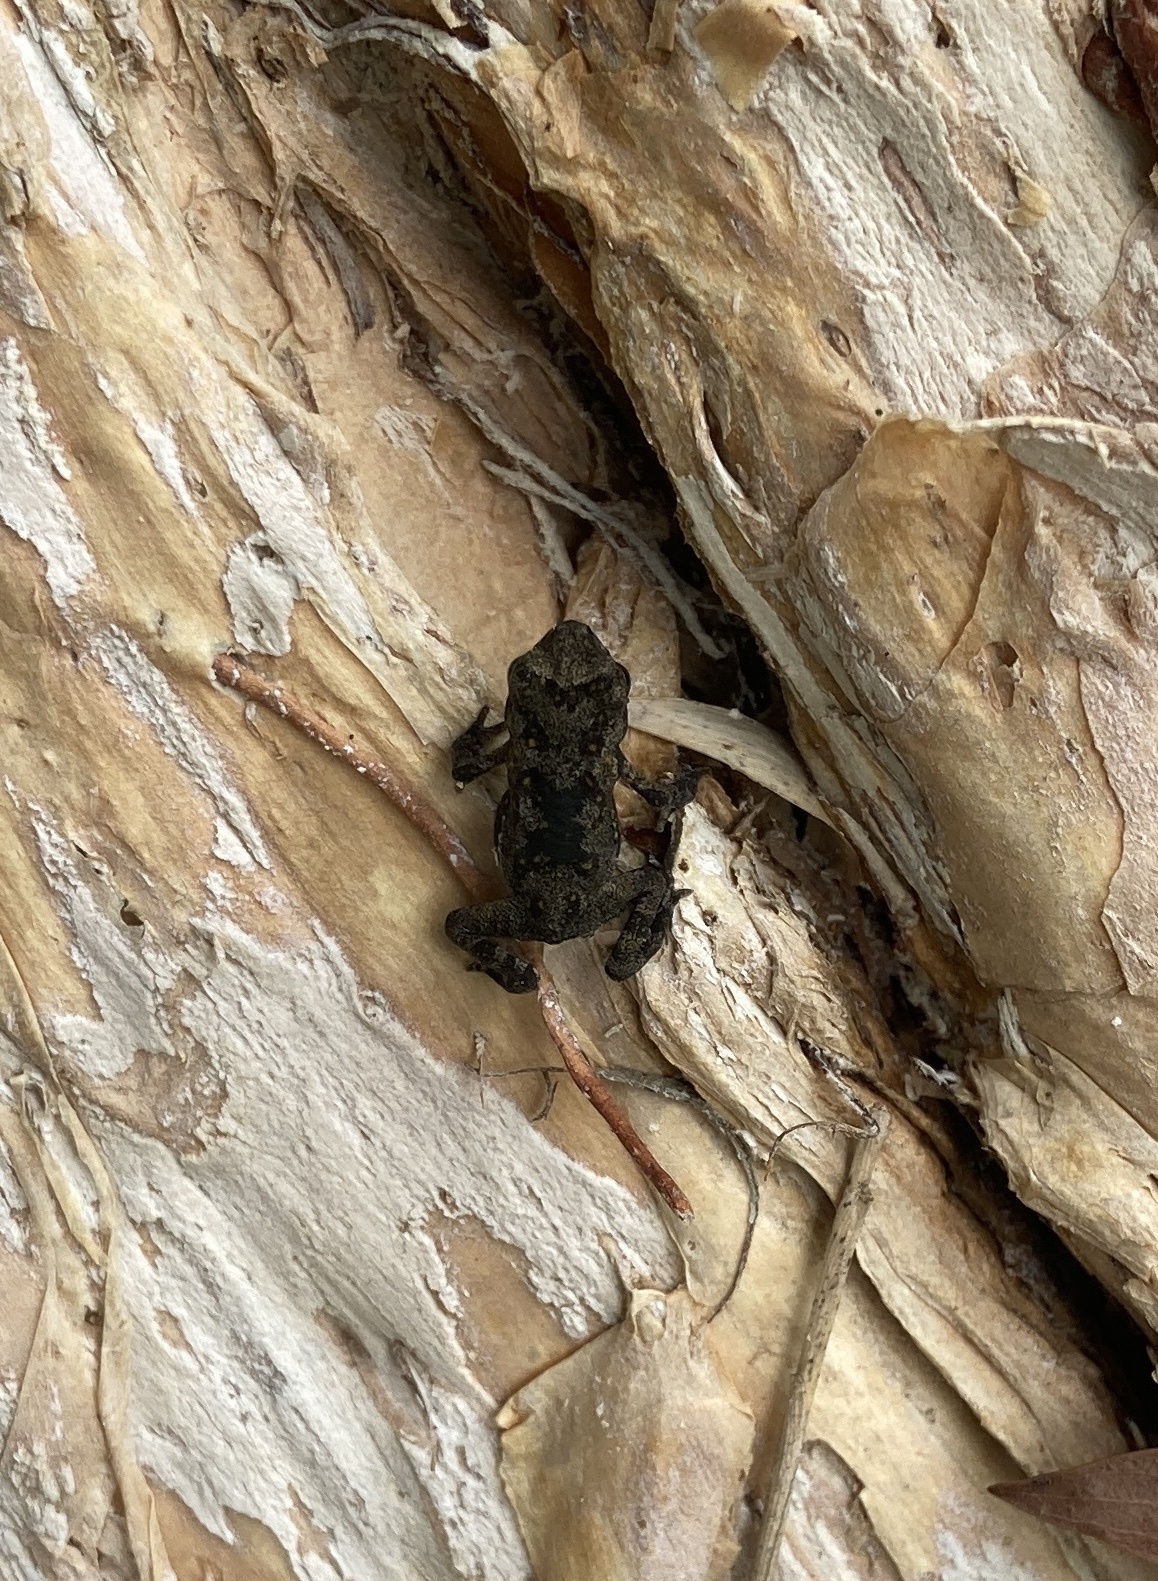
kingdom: Animalia
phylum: Chordata
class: Amphibia
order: Anura
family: Bufonidae
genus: Rhinella
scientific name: Rhinella marina
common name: Cane toad
